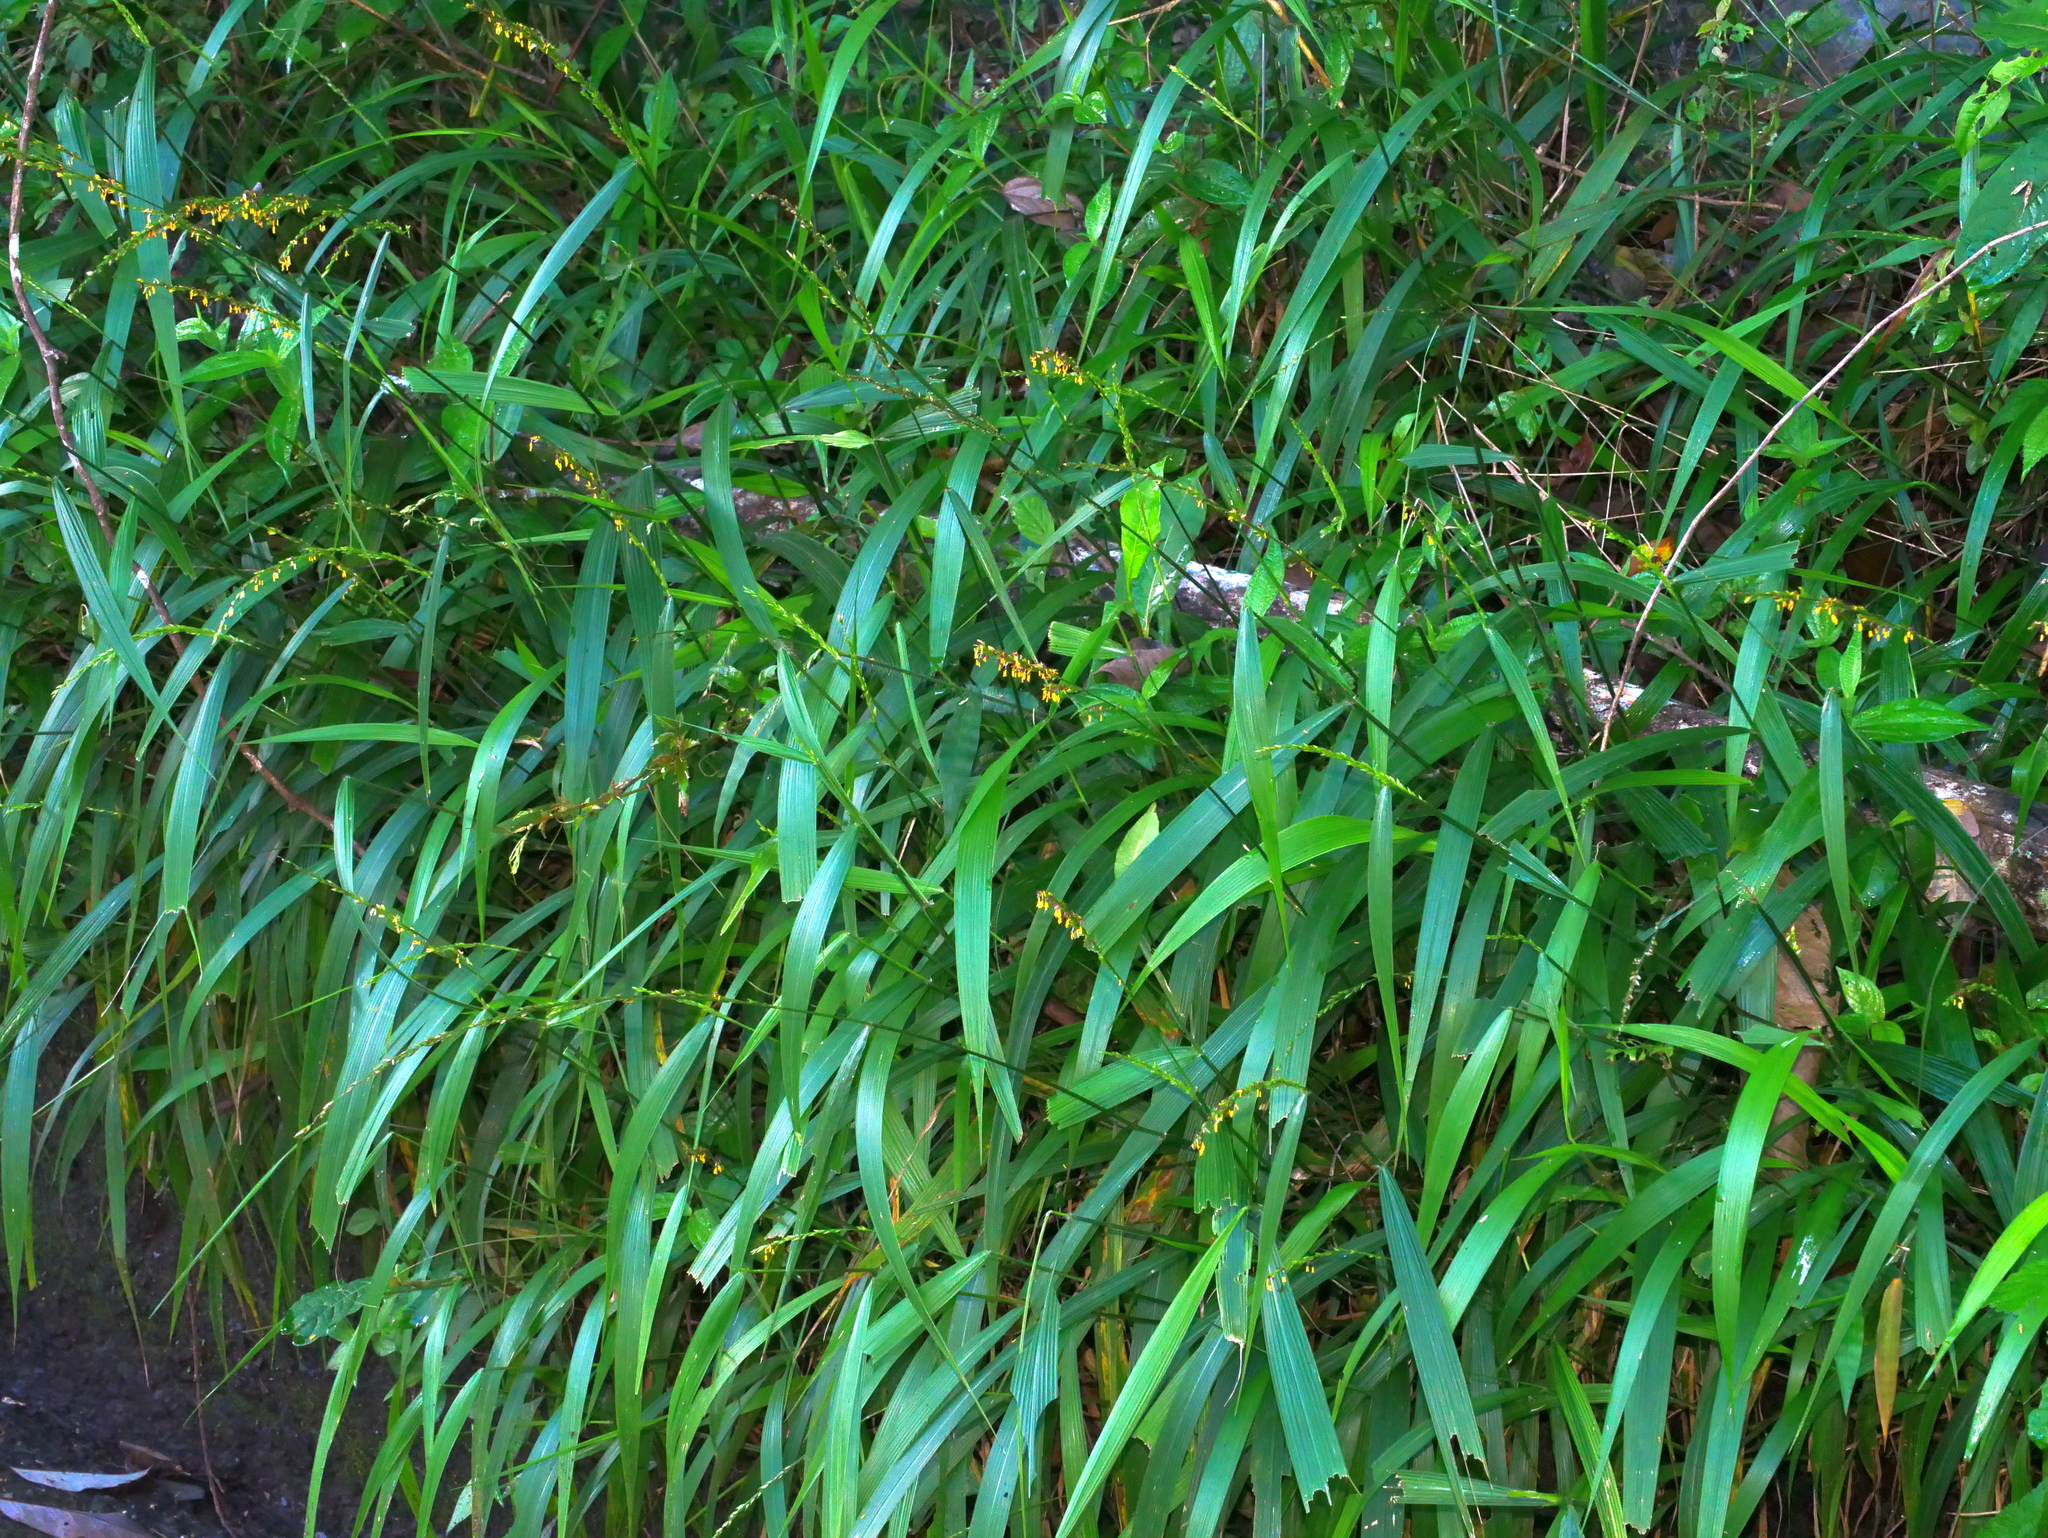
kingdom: Plantae
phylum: Tracheophyta
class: Liliopsida
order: Poales
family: Poaceae
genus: Setaria
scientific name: Setaria plicata
